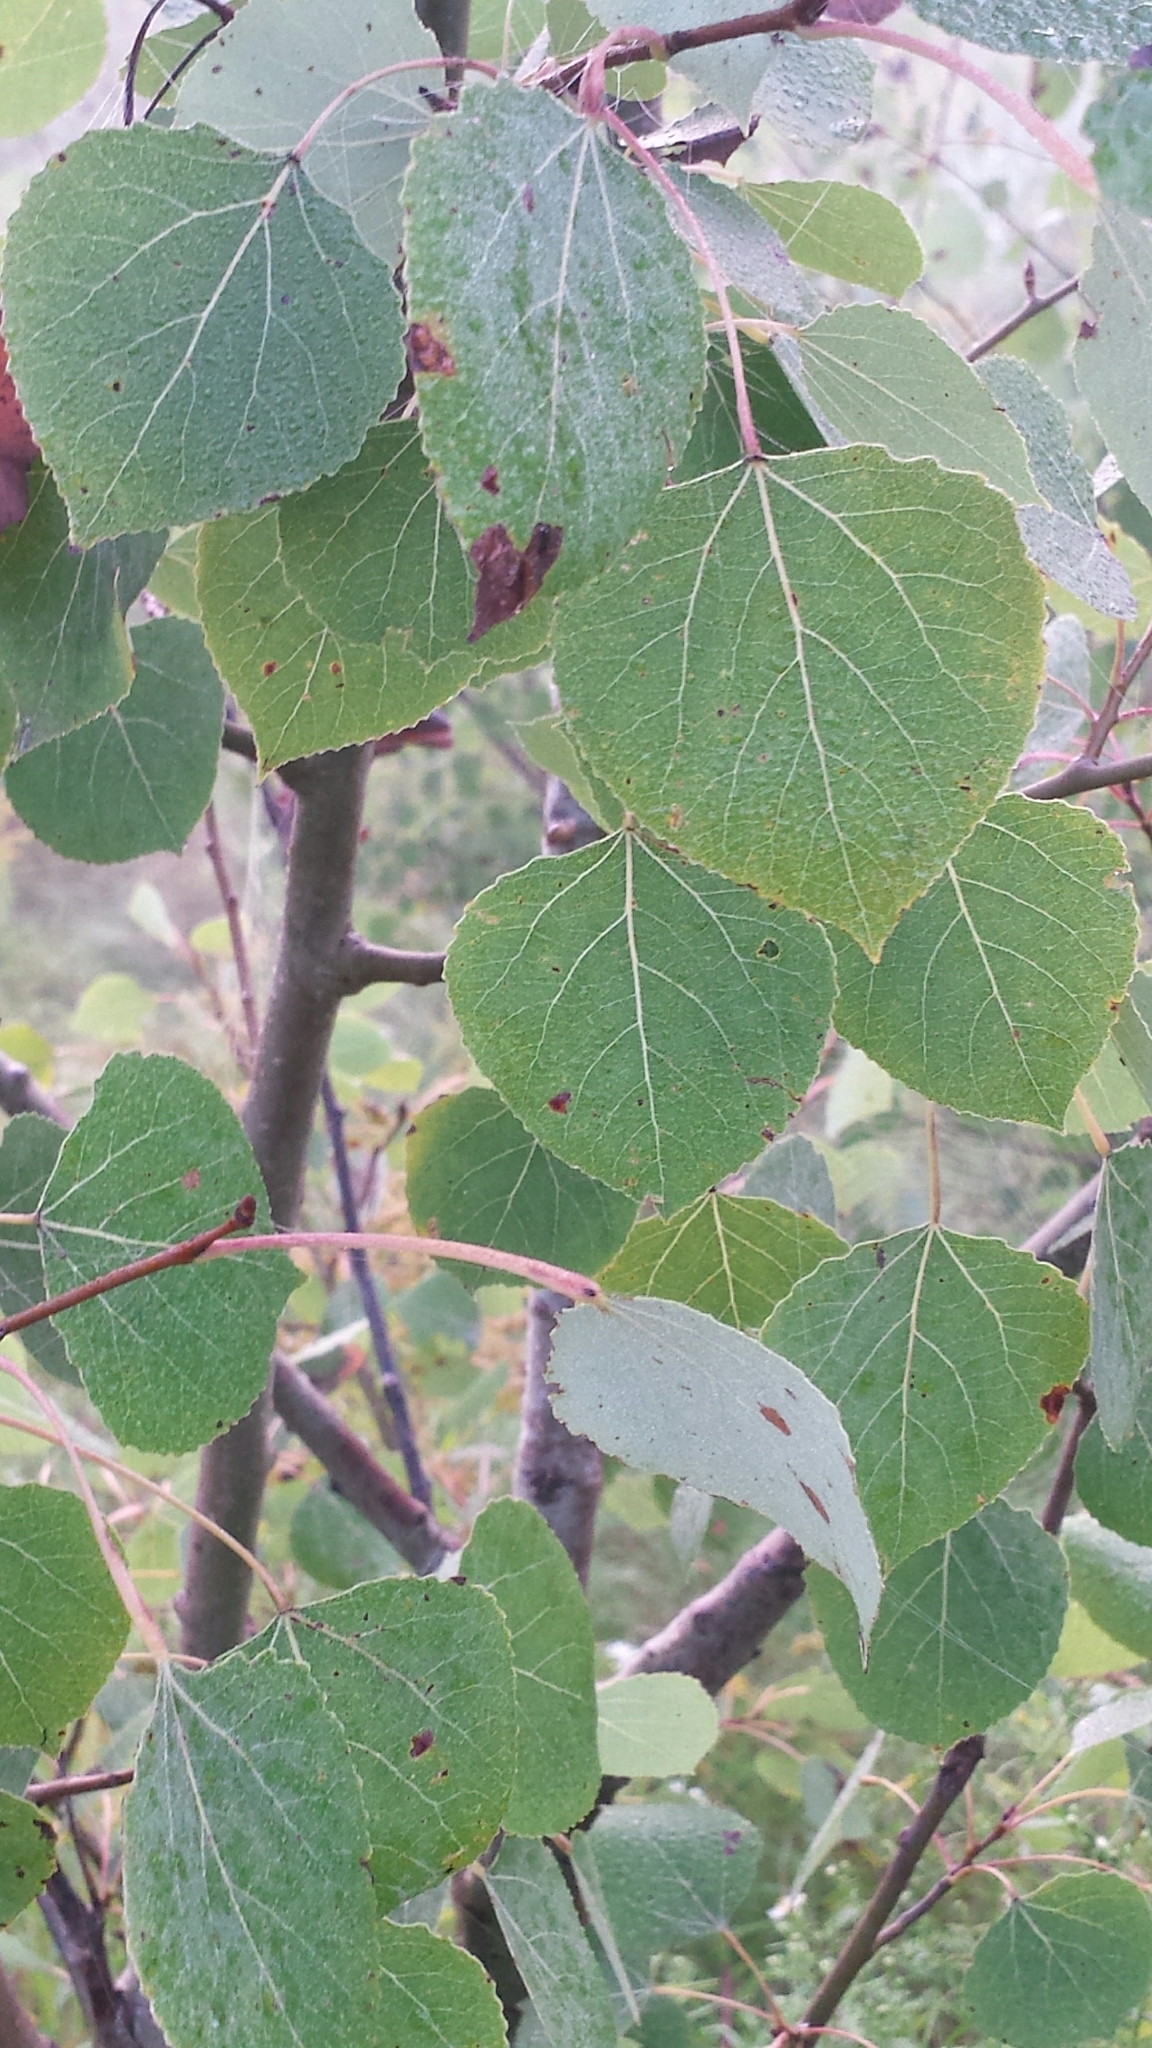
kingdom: Plantae
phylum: Tracheophyta
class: Magnoliopsida
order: Malpighiales
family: Salicaceae
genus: Populus
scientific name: Populus tremuloides
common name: Quaking aspen
